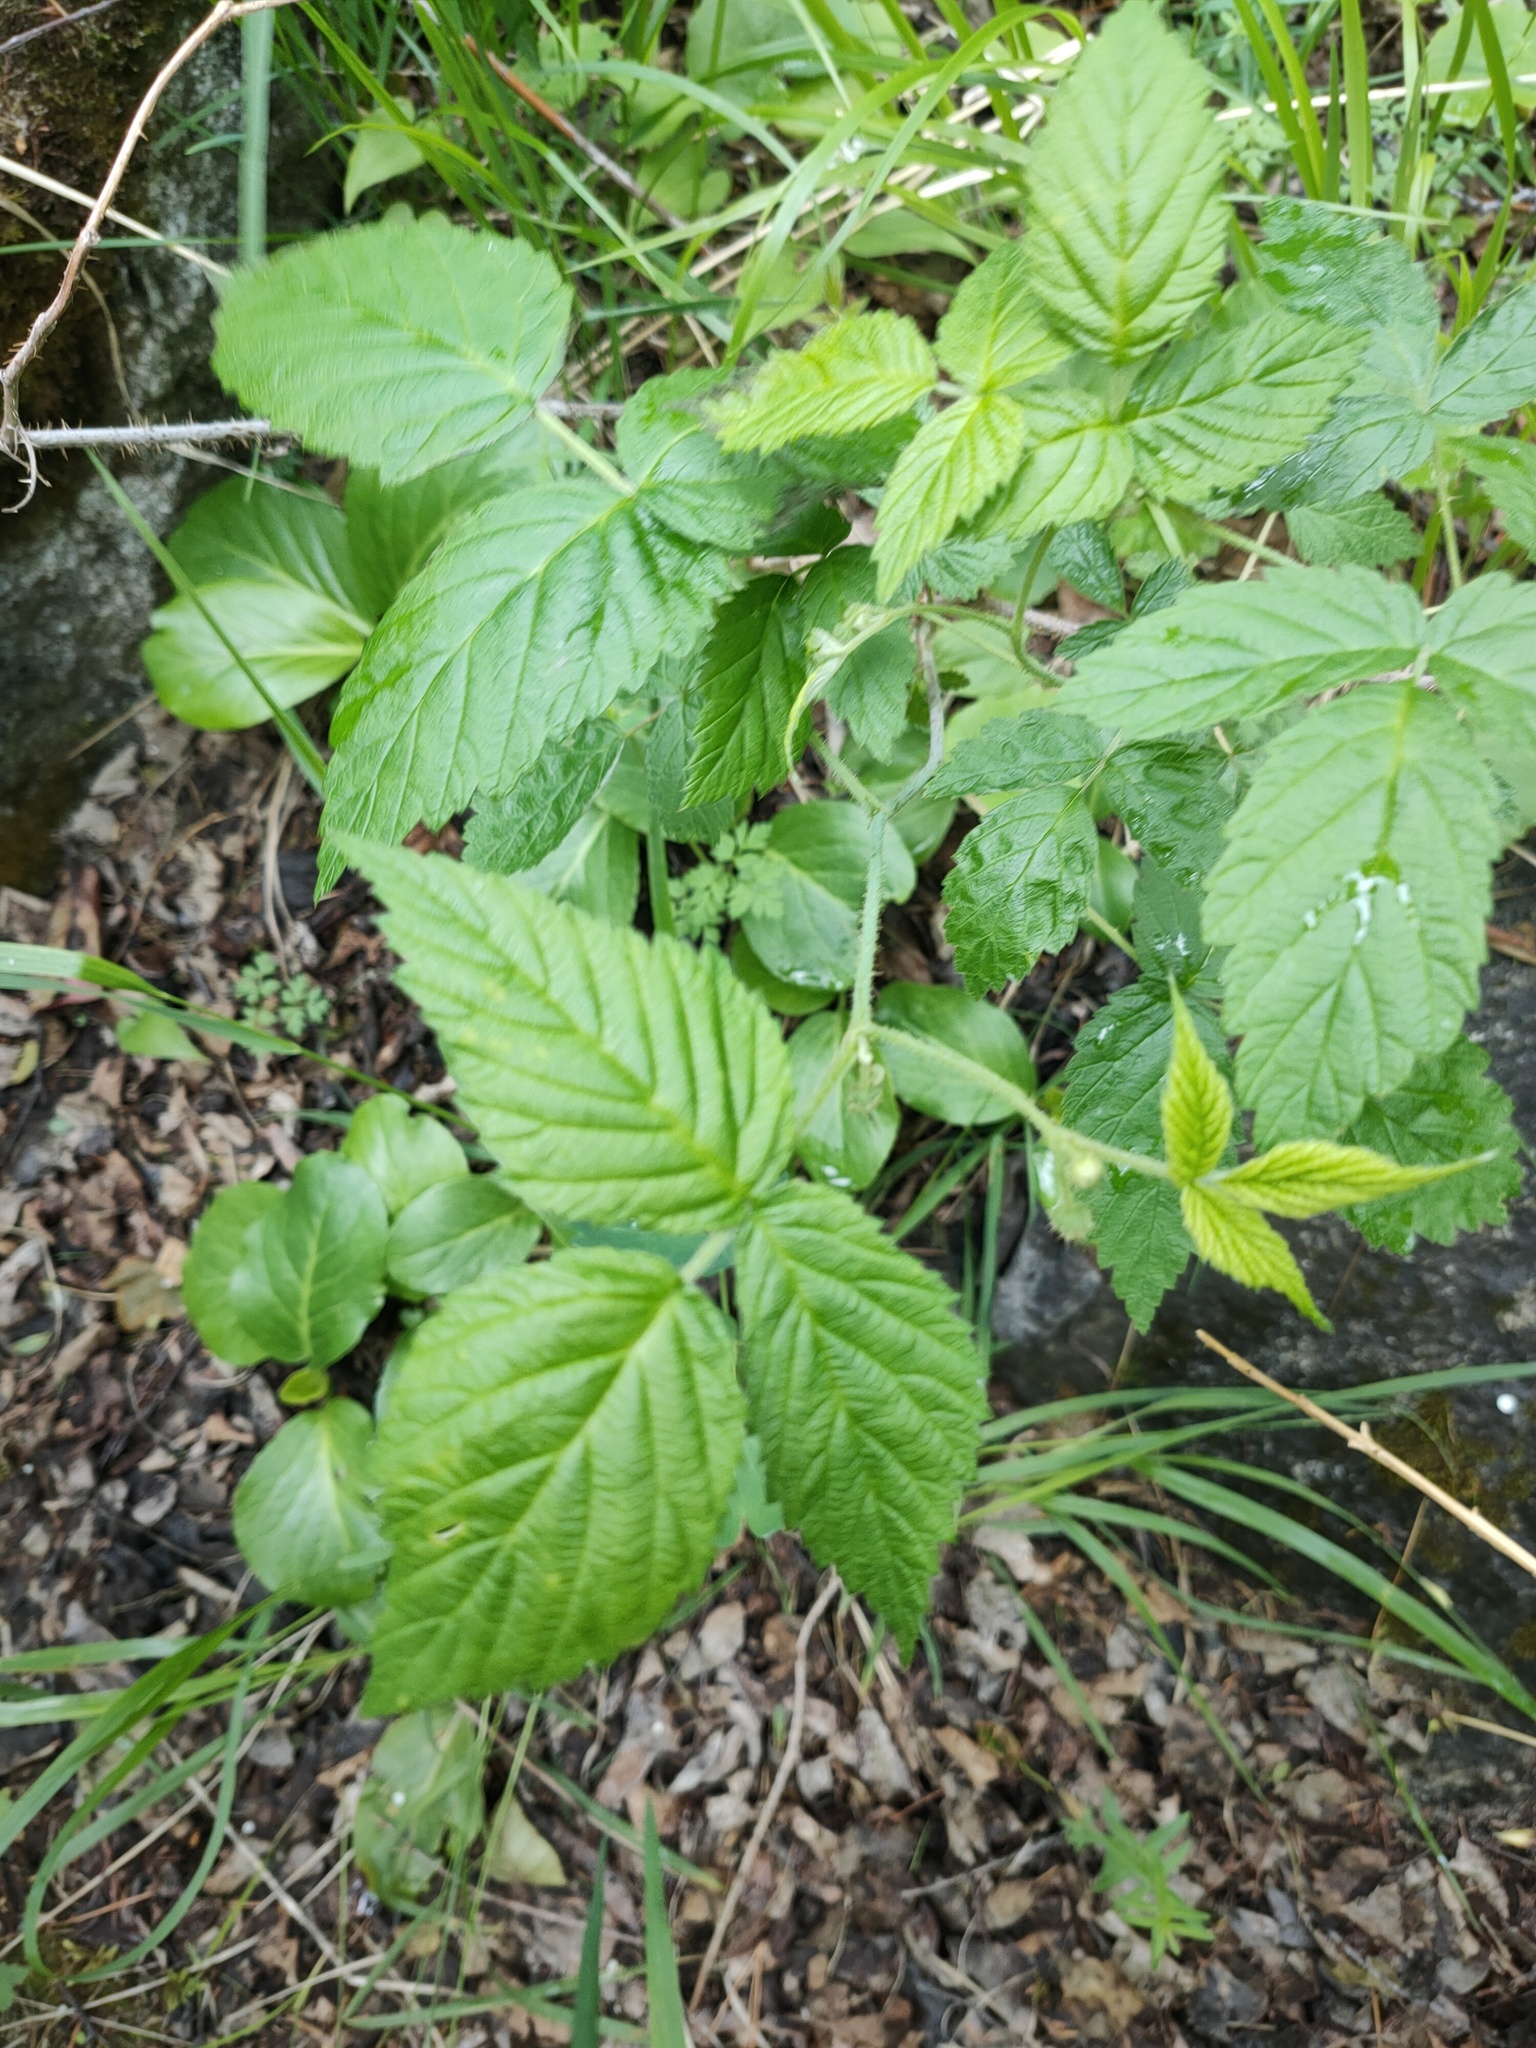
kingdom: Plantae
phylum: Tracheophyta
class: Magnoliopsida
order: Rosales
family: Rosaceae
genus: Rubus
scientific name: Rubus sachalinensis
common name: Red raspberry
